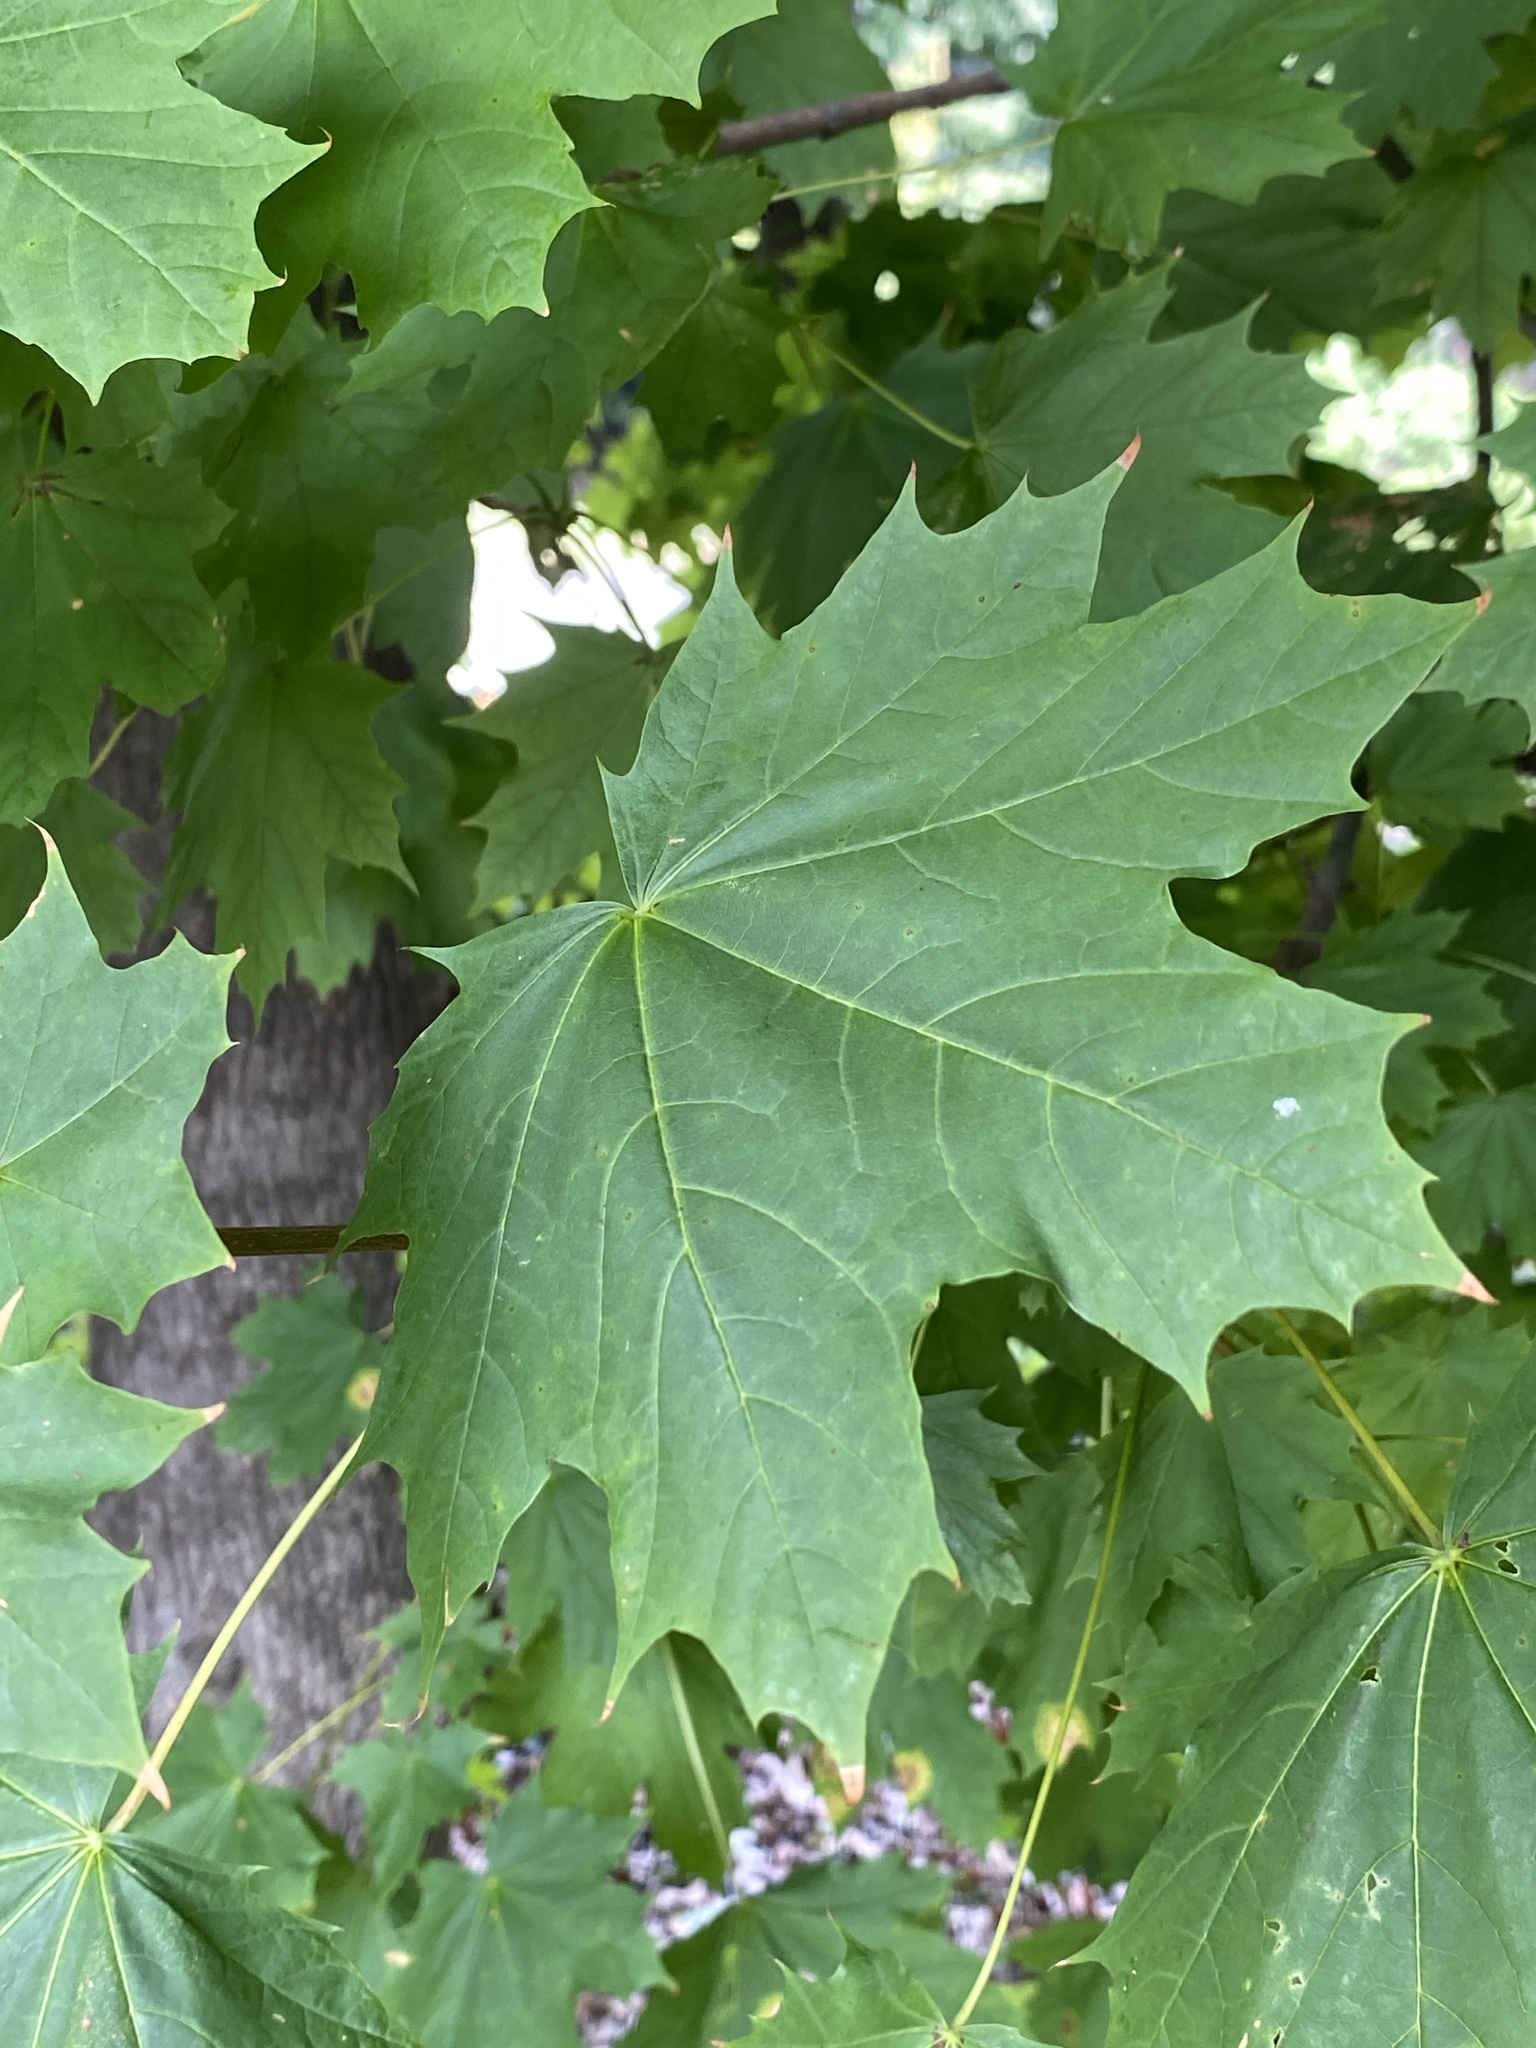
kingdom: Plantae
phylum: Tracheophyta
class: Magnoliopsida
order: Sapindales
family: Sapindaceae
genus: Acer
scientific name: Acer platanoides
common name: Norway maple
